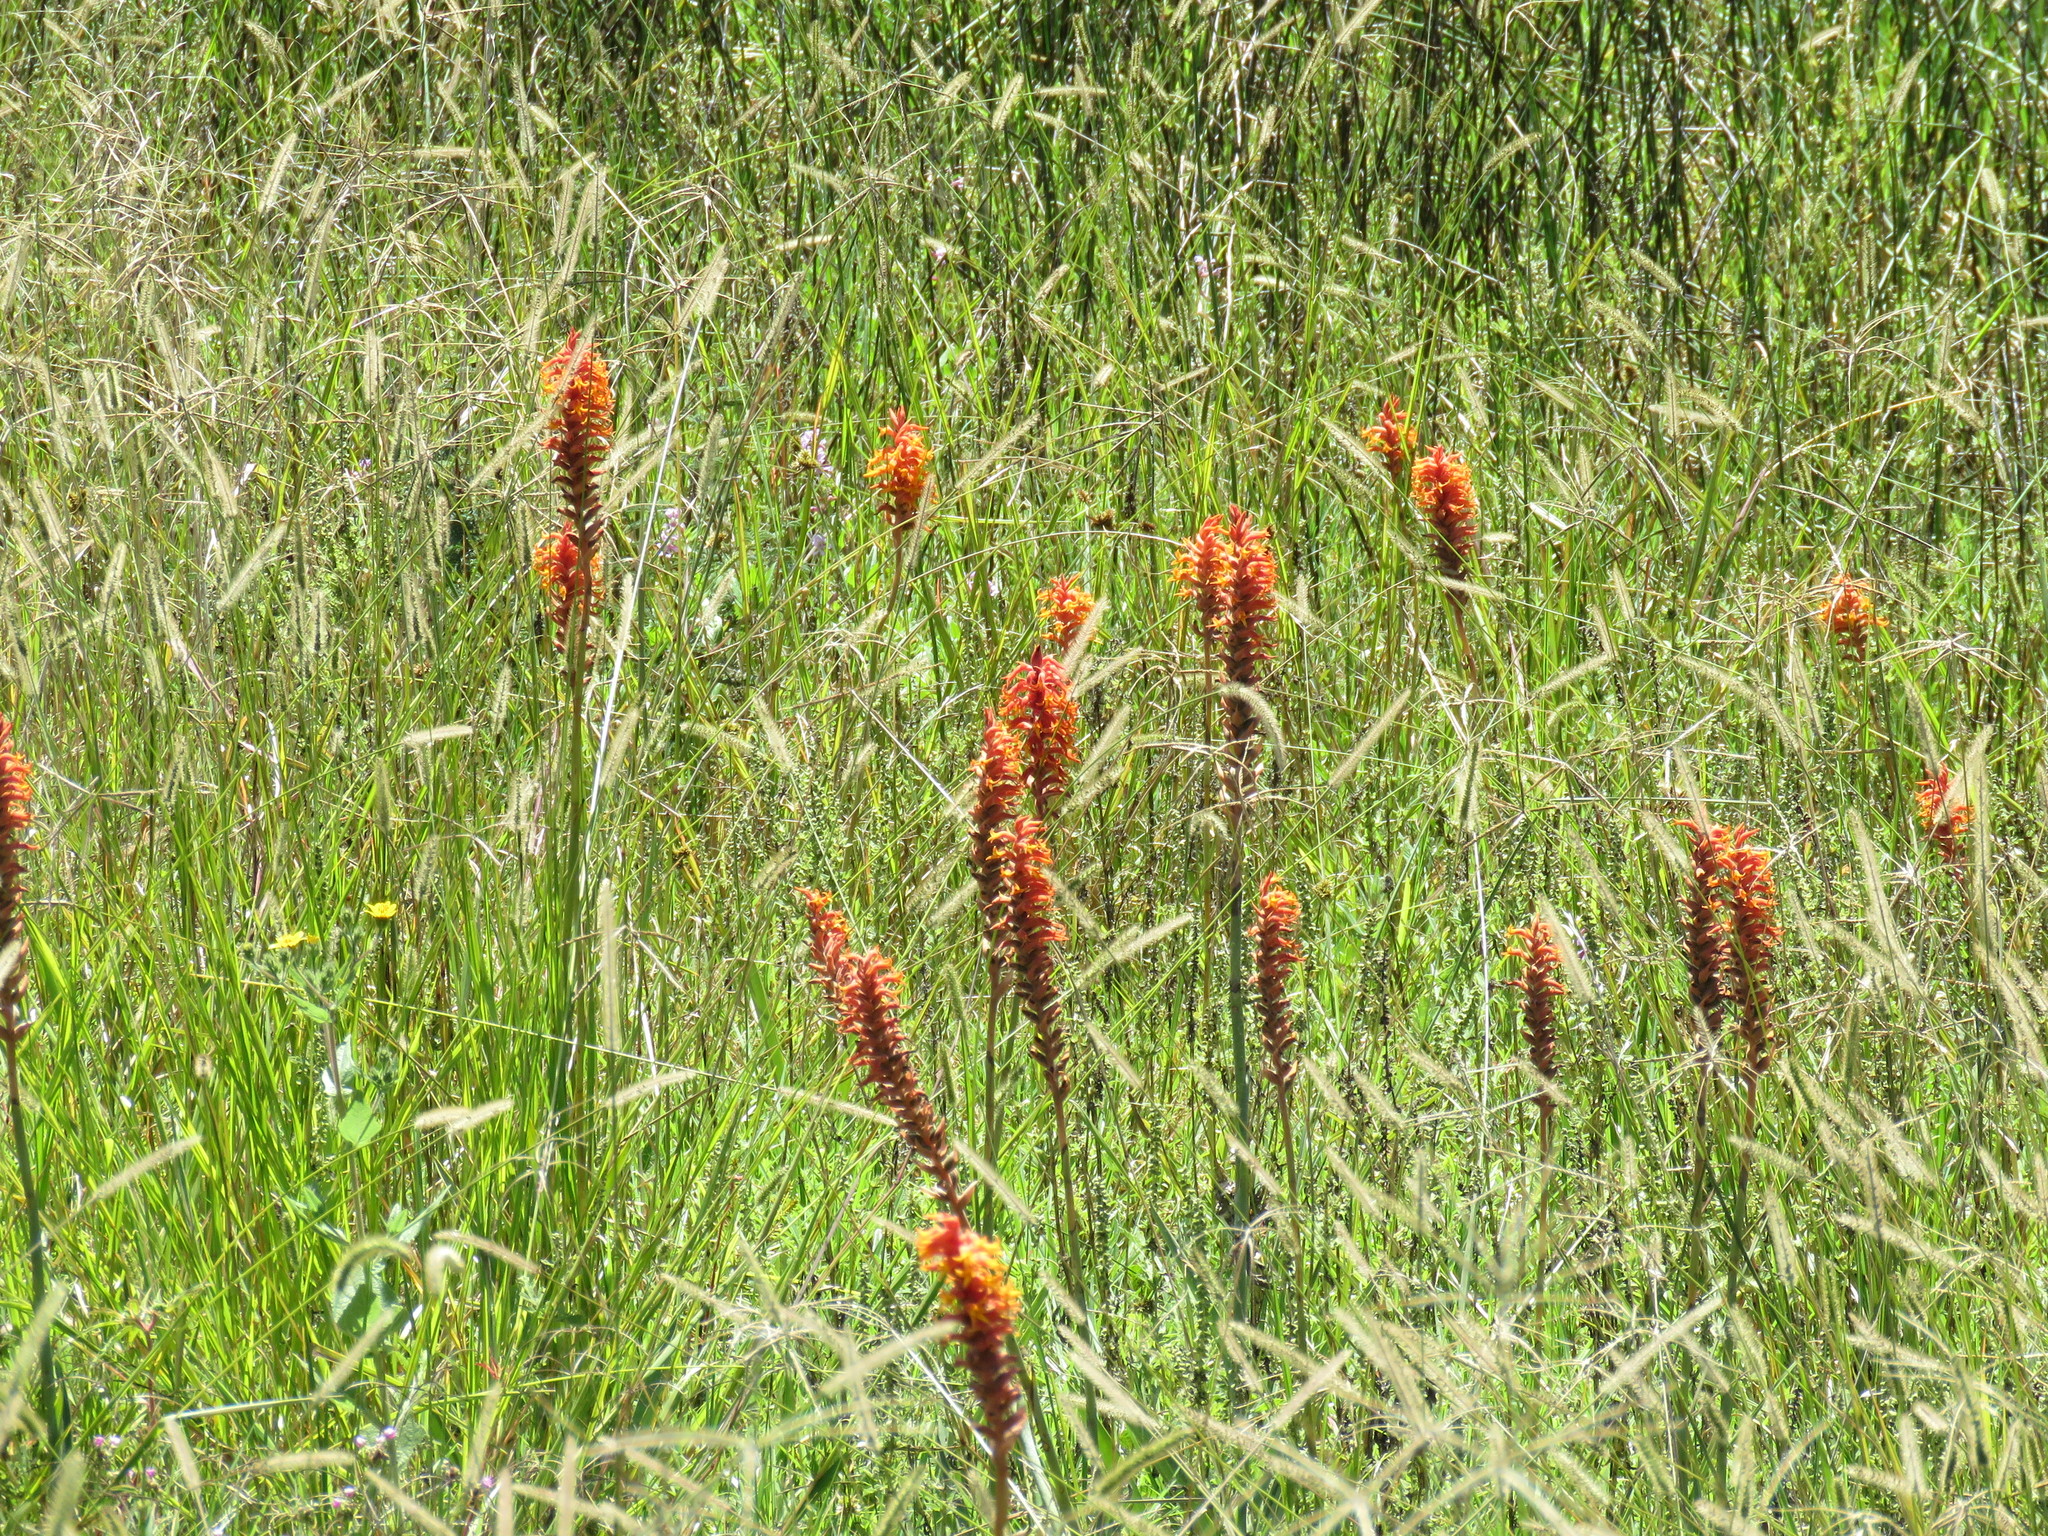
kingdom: Plantae
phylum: Tracheophyta
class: Liliopsida
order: Asparagales
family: Orchidaceae
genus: Dichromanthus
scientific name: Dichromanthus cinnabarinus
